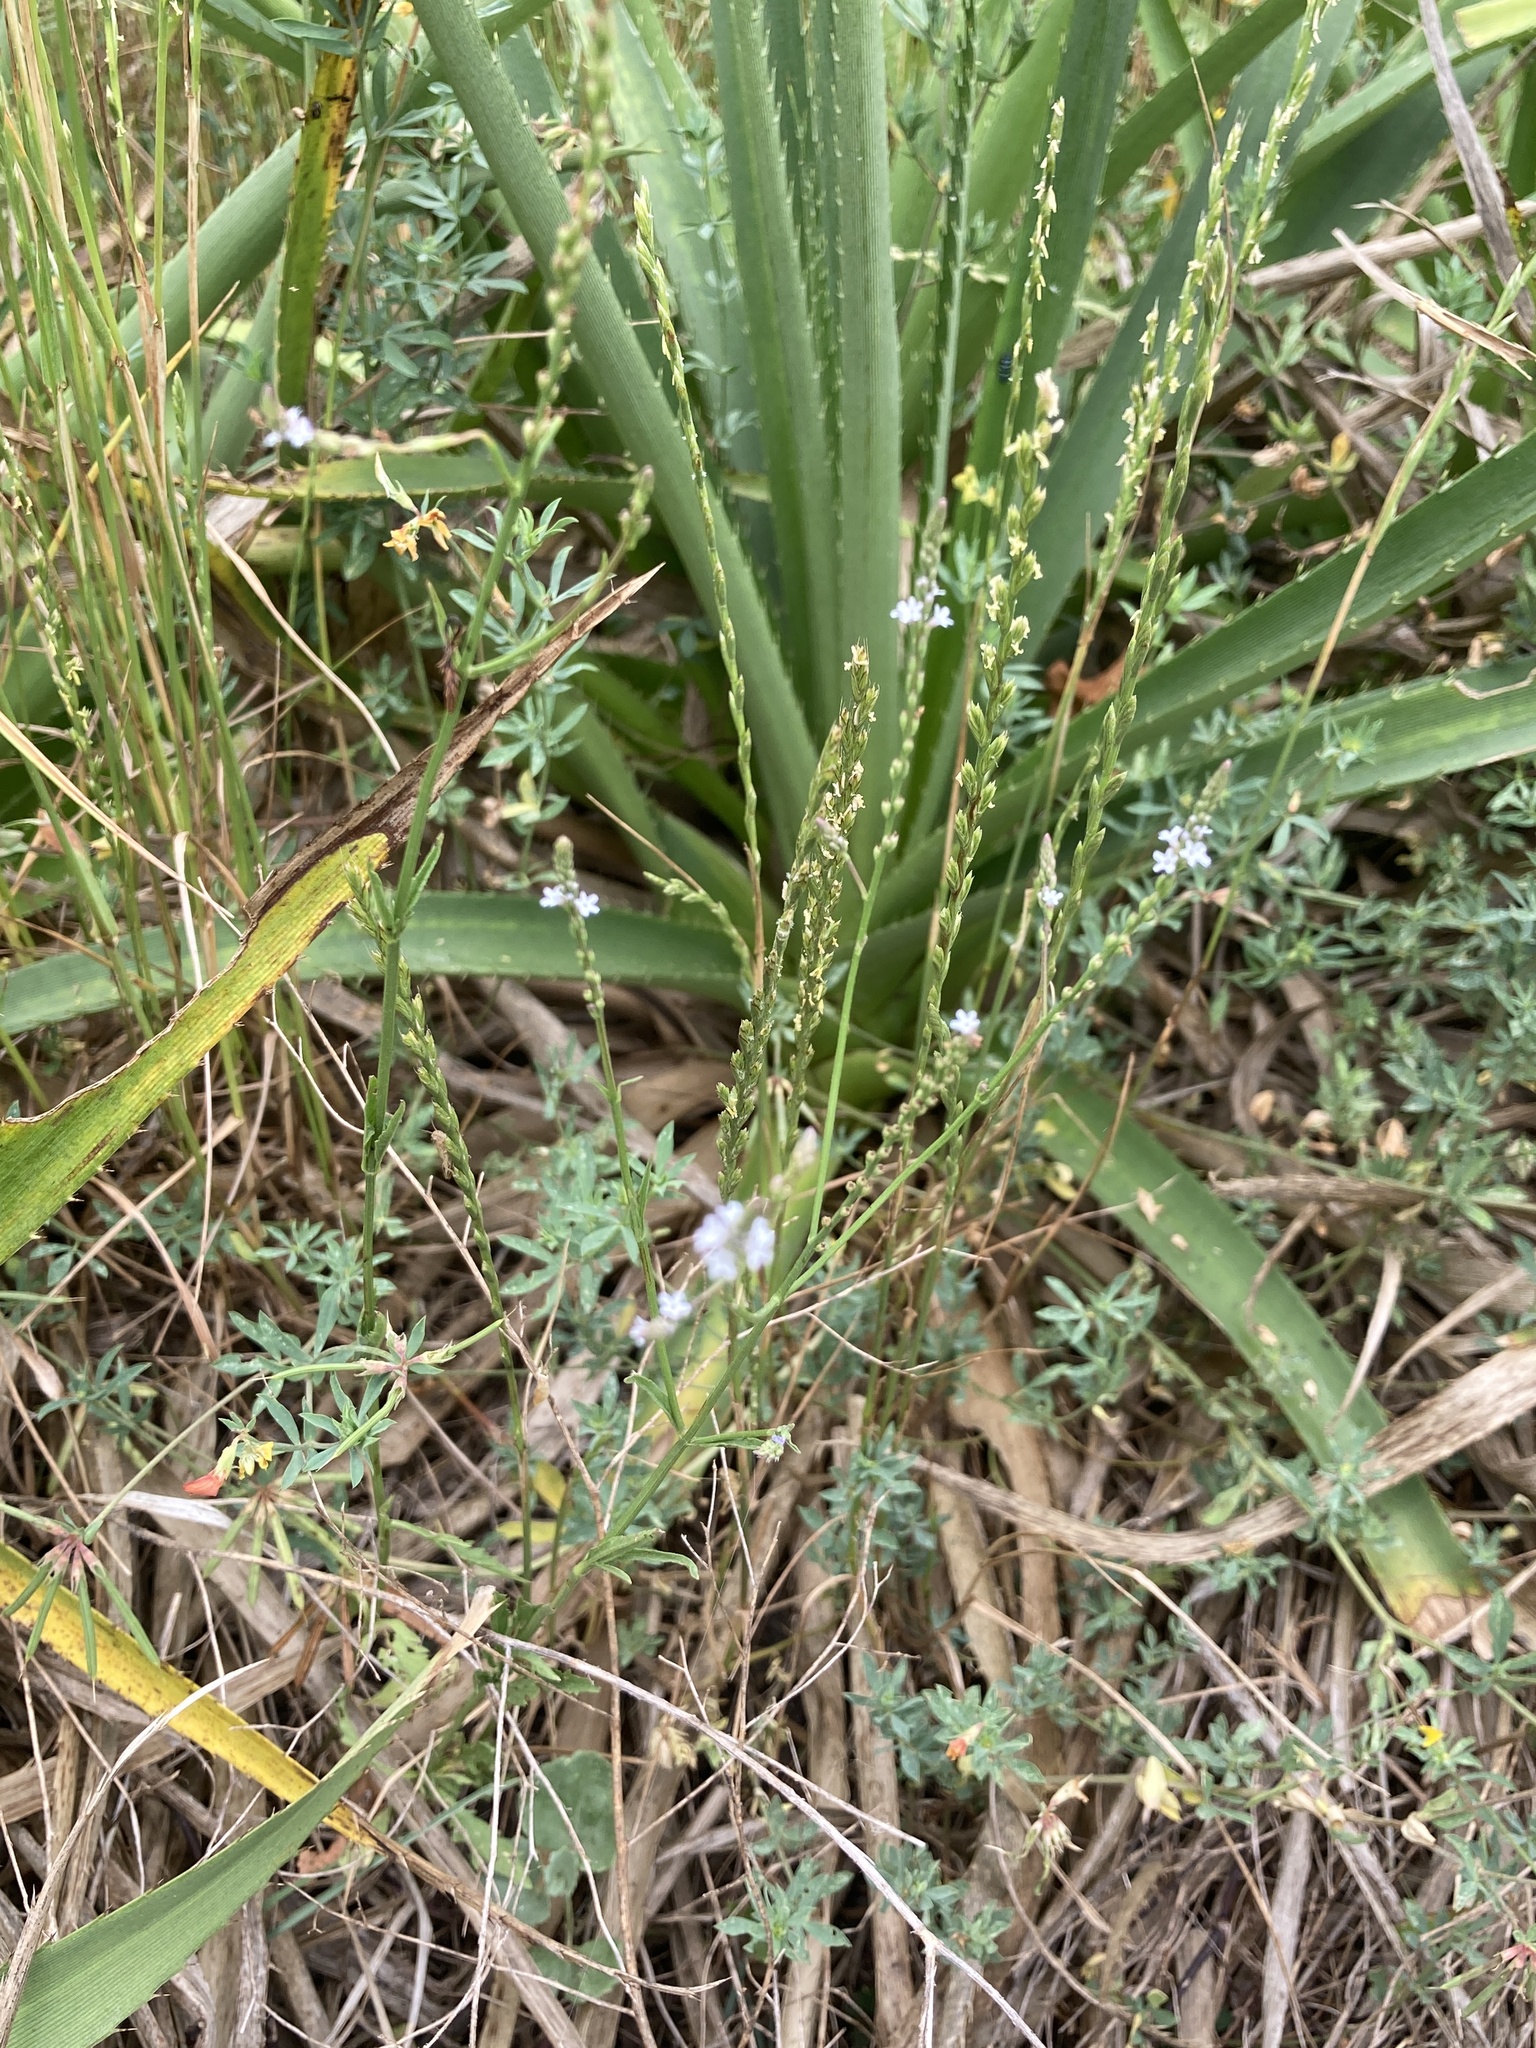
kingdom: Plantae
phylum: Tracheophyta
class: Magnoliopsida
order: Lamiales
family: Verbenaceae
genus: Verbena
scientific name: Verbena gracilescens
